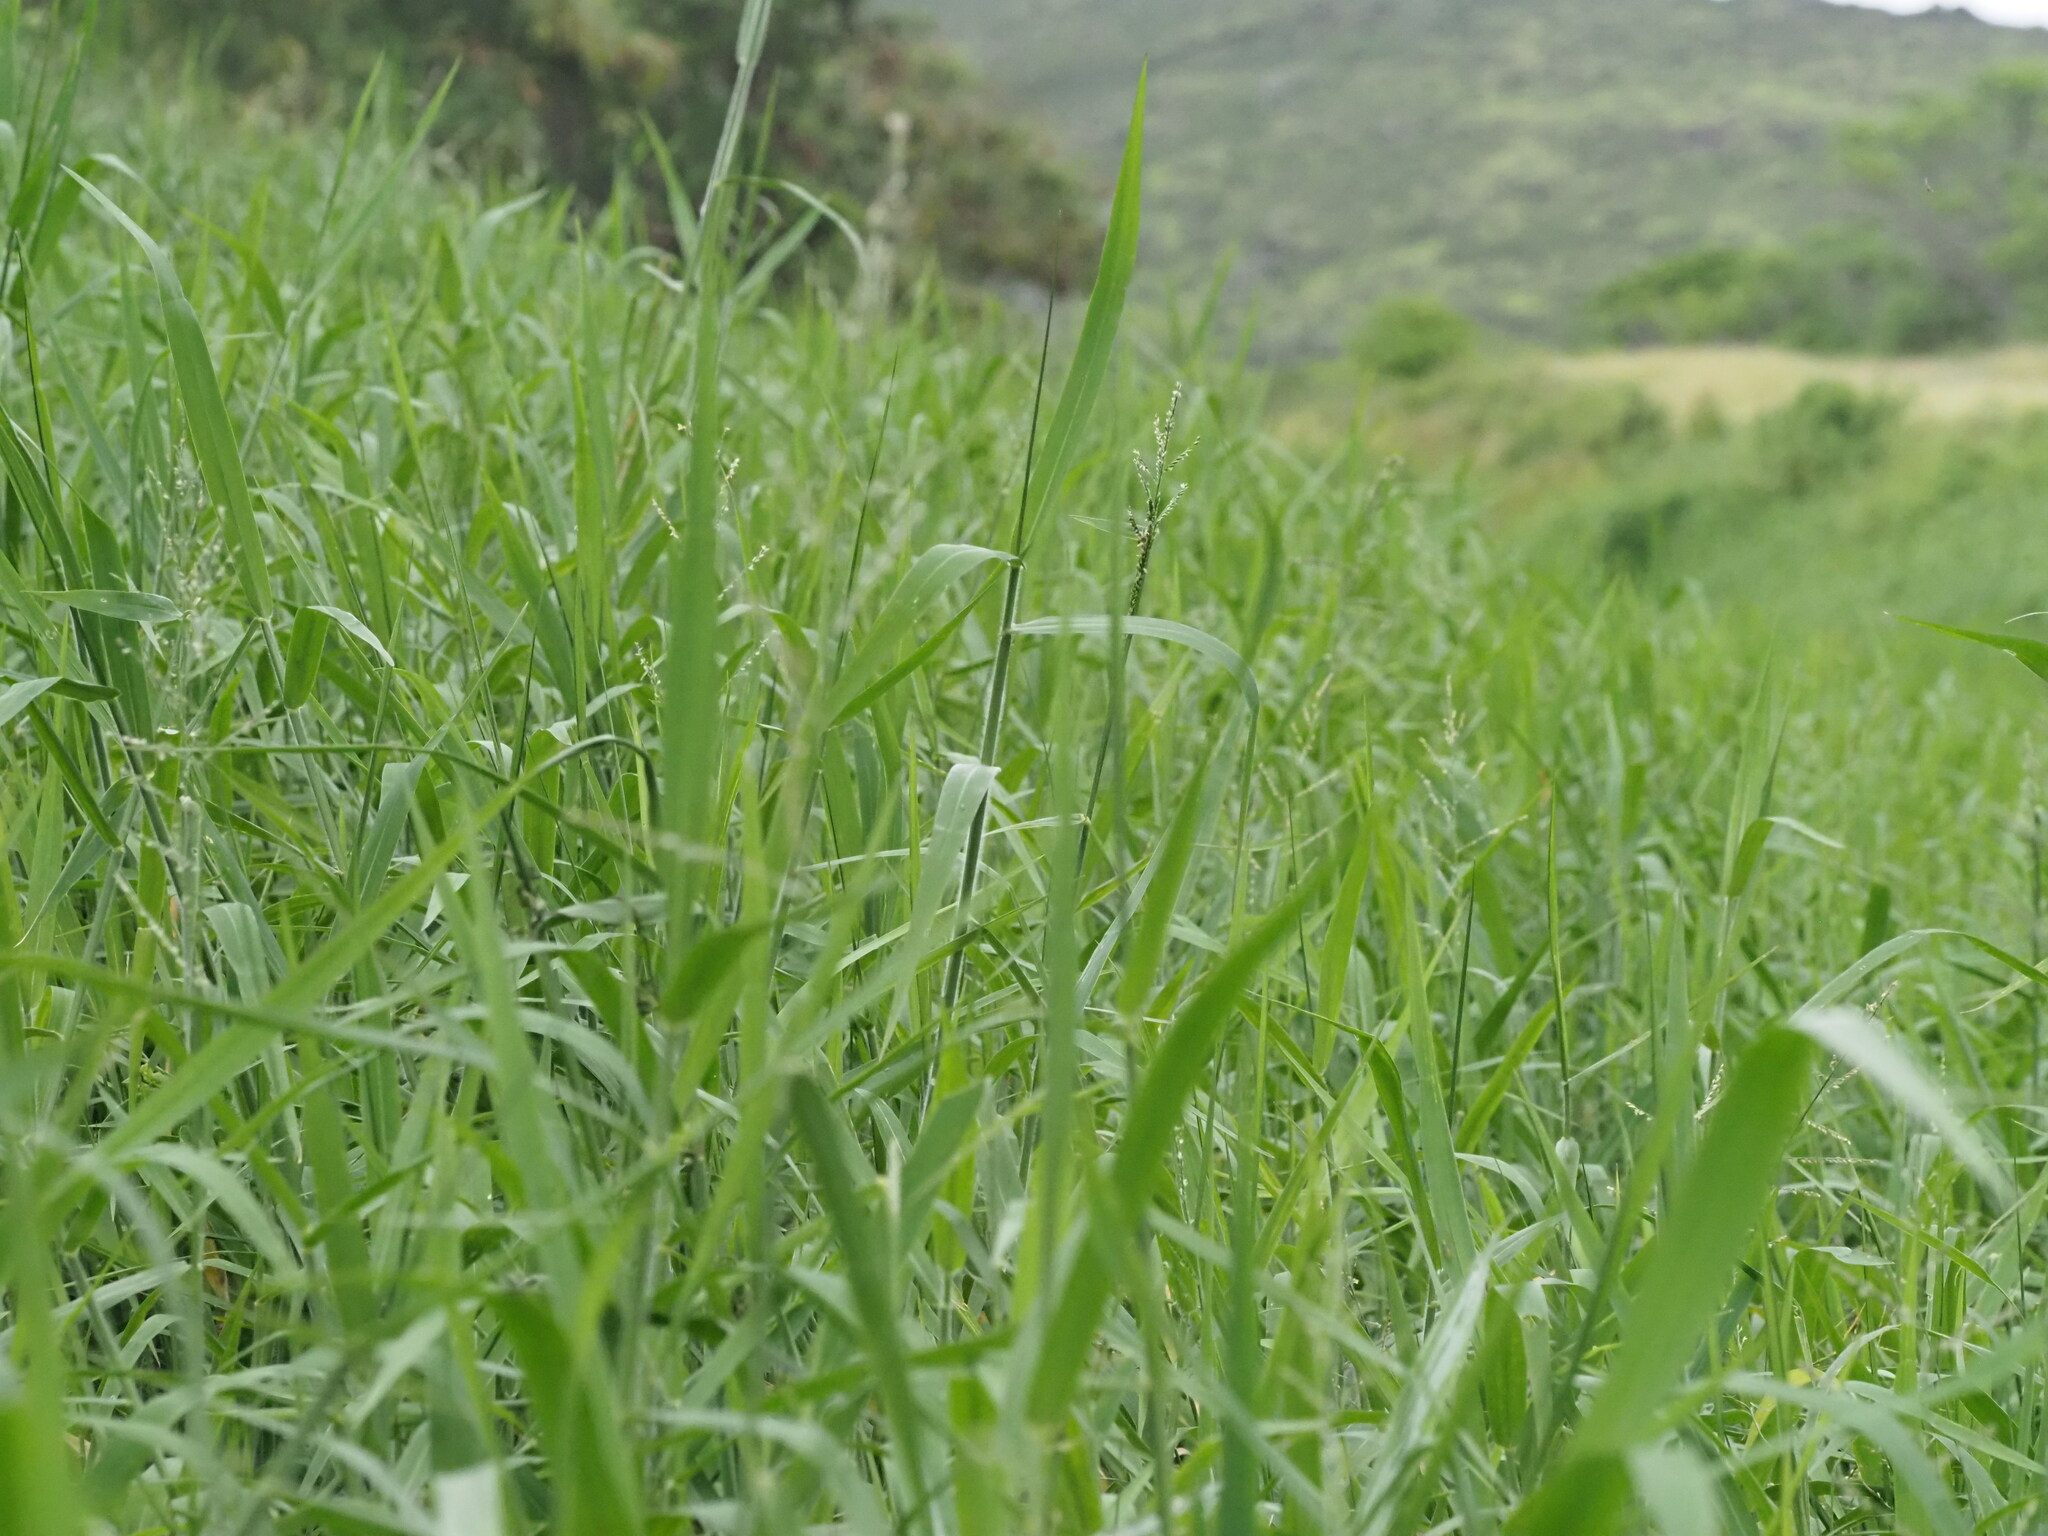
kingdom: Plantae
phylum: Tracheophyta
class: Liliopsida
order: Poales
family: Poaceae
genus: Urochloa
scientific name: Urochloa mutica
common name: Para grass
